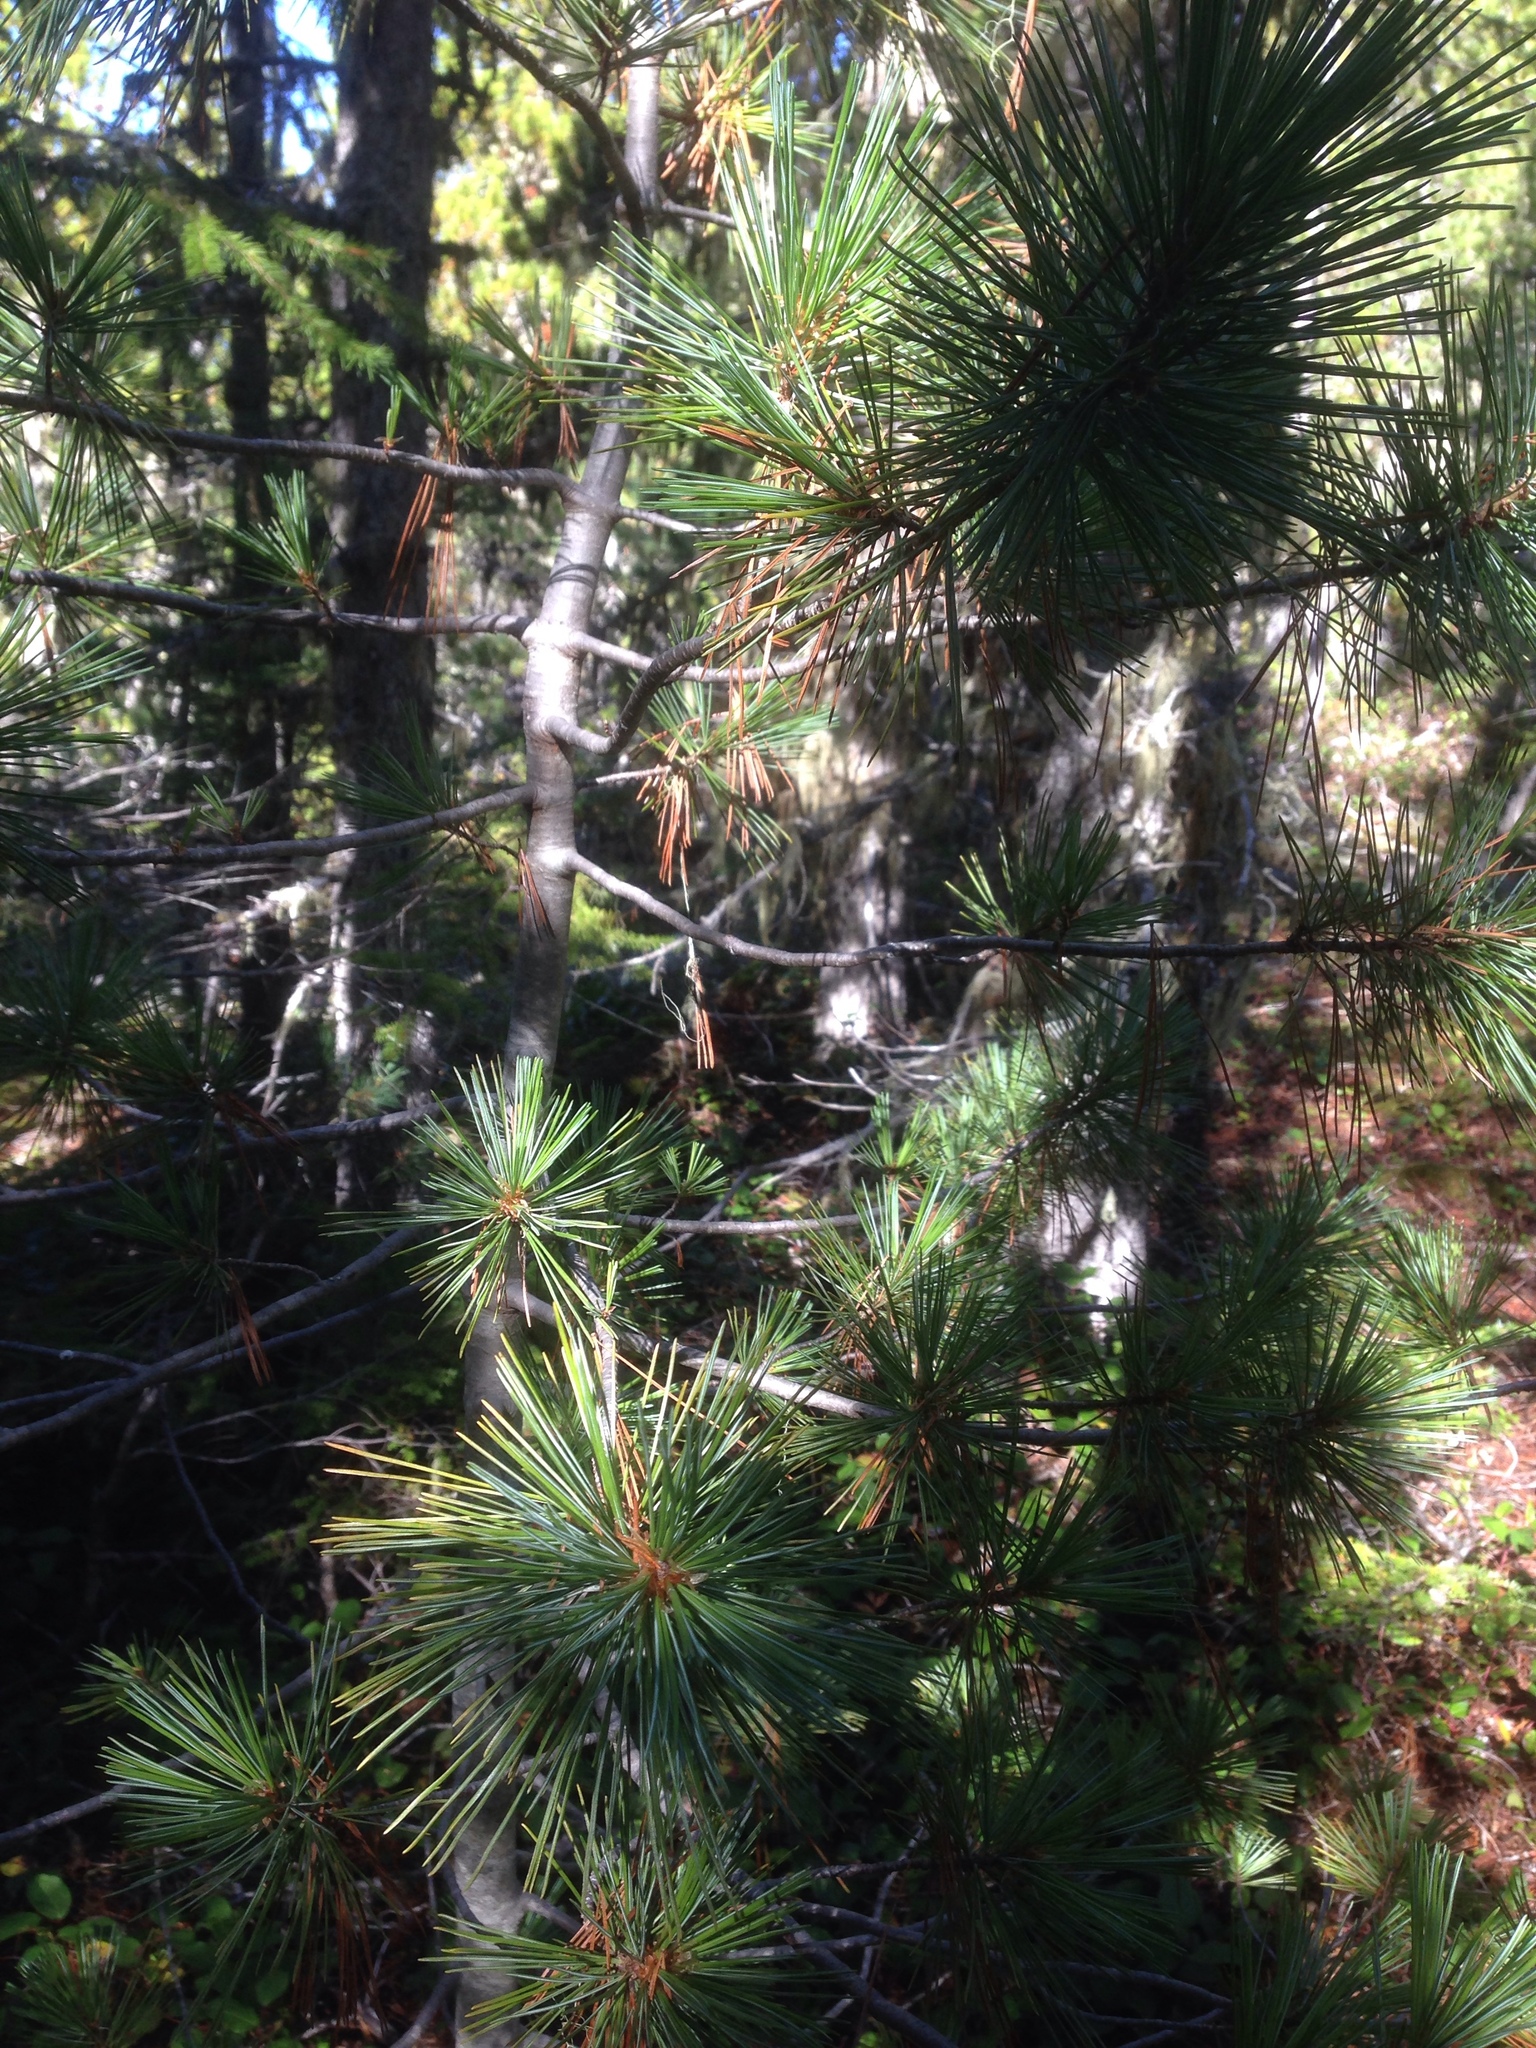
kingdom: Plantae
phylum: Tracheophyta
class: Pinopsida
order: Pinales
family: Pinaceae
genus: Pinus
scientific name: Pinus monticola
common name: Western white pine
